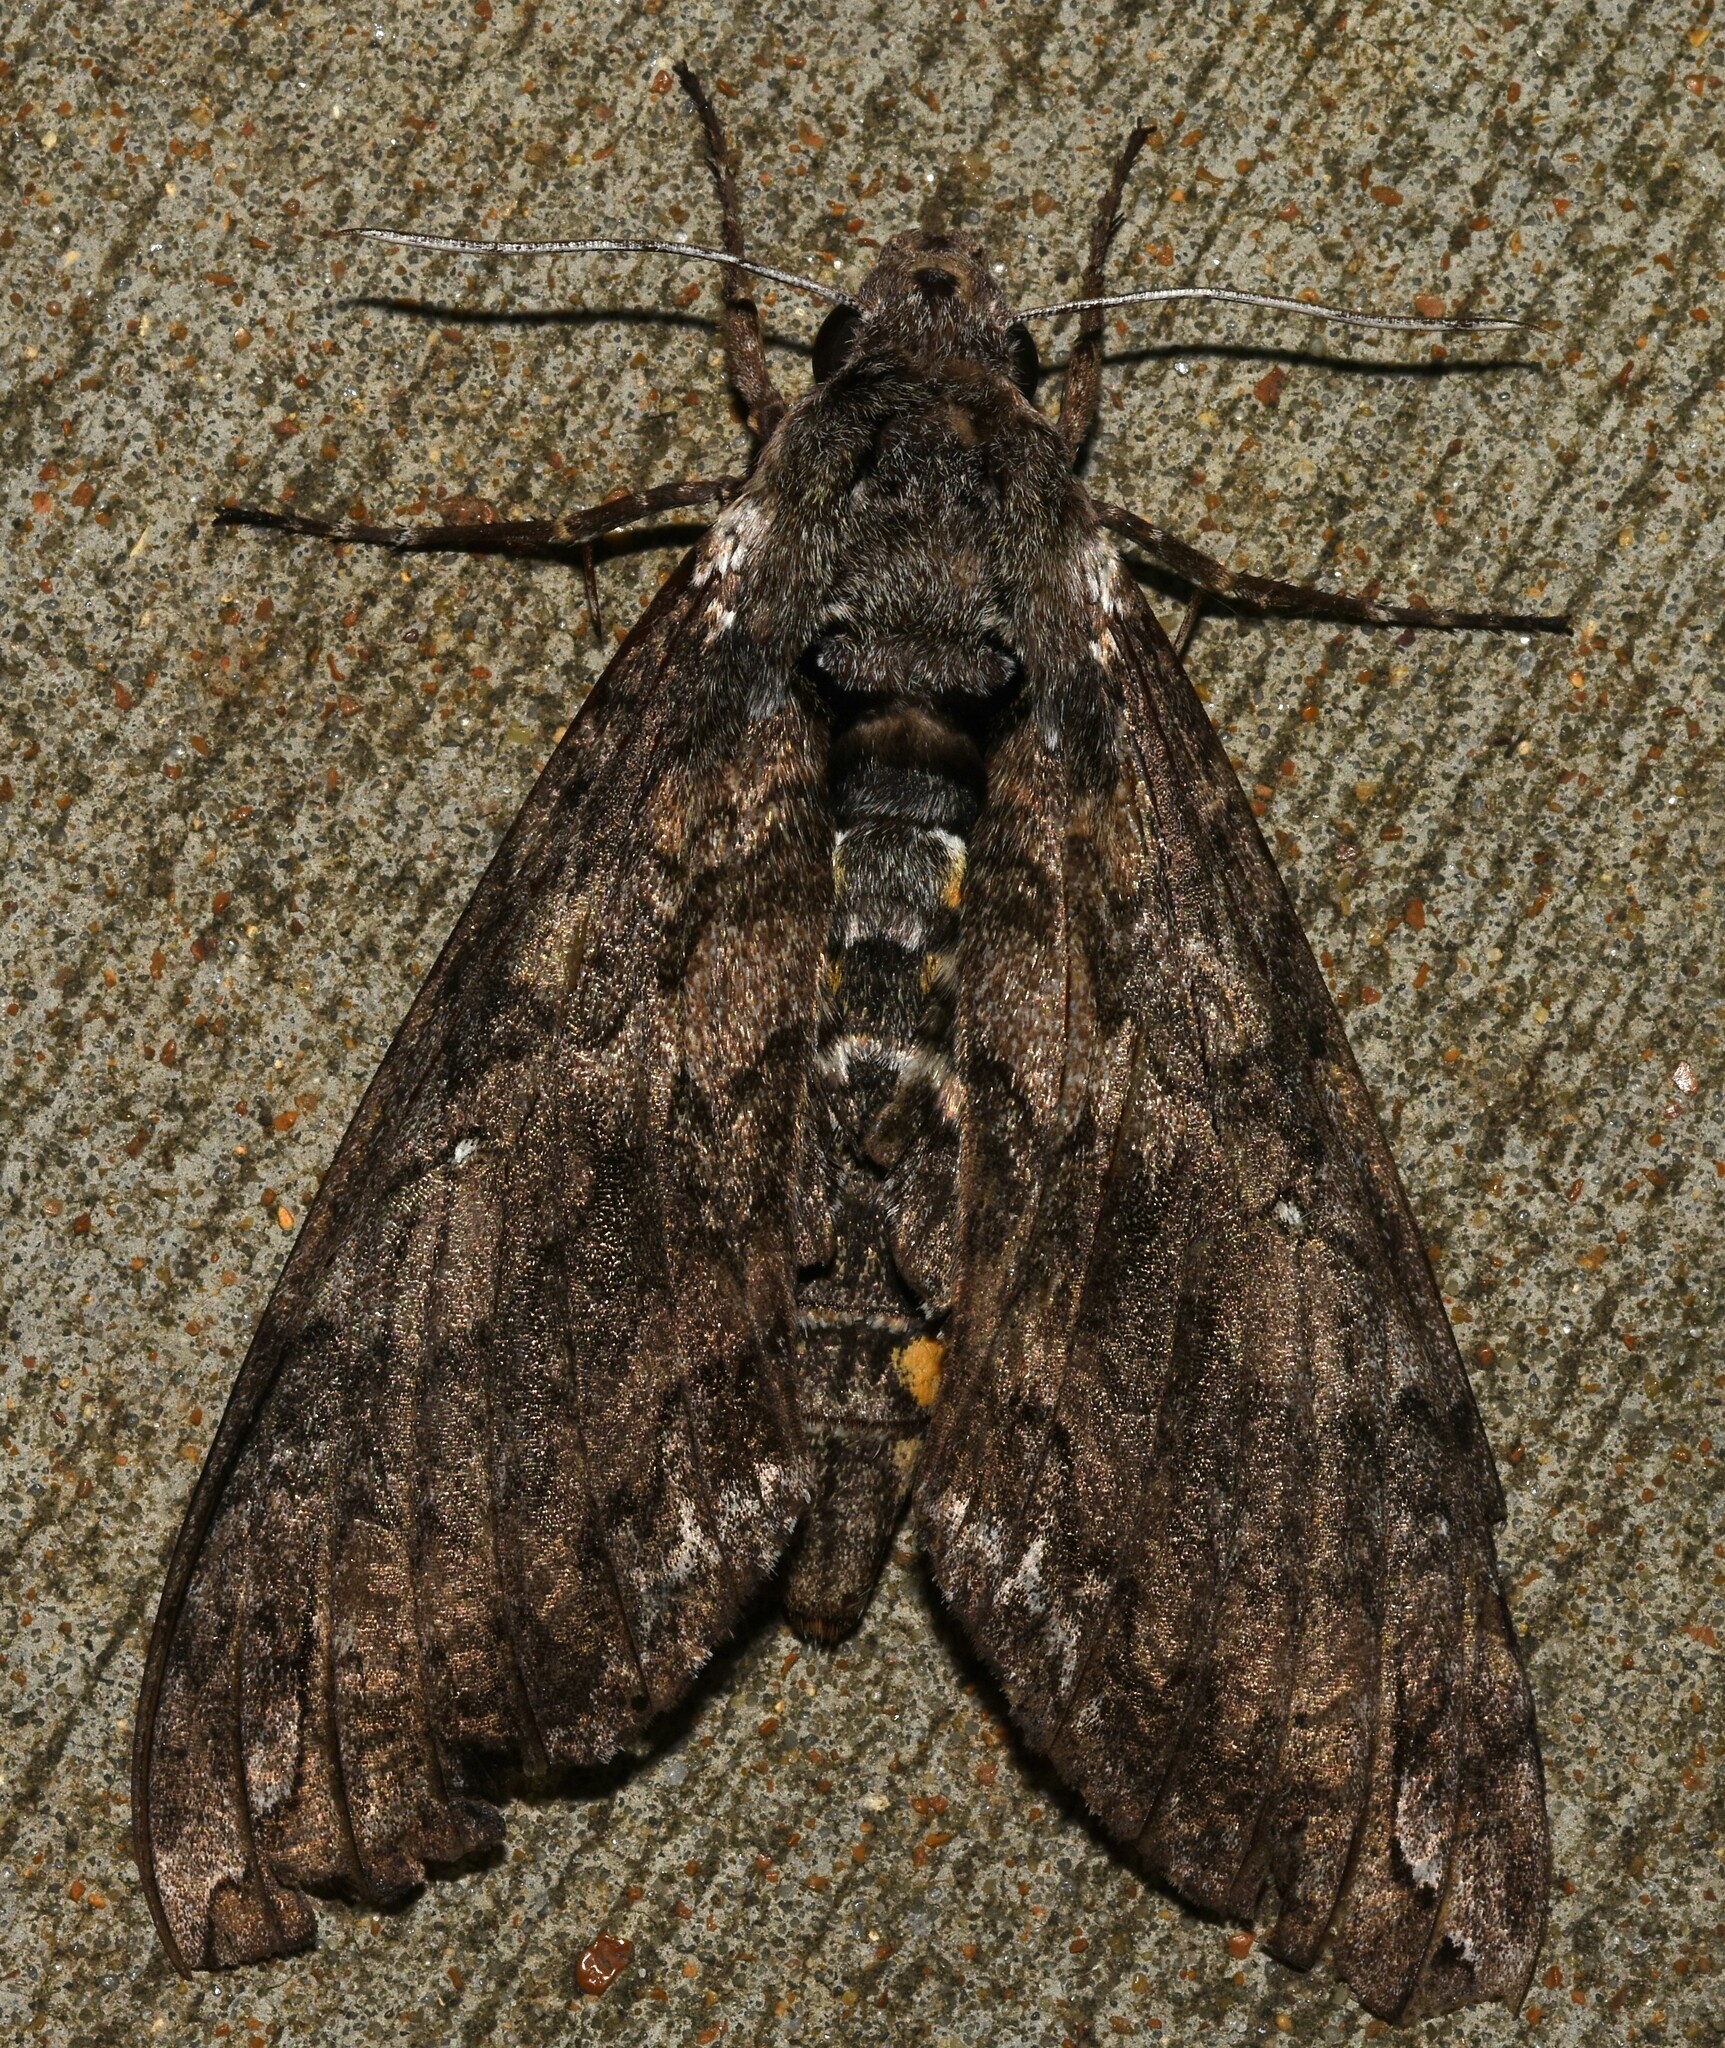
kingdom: Animalia
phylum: Arthropoda
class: Insecta
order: Lepidoptera
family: Sphingidae
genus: Manduca
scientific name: Manduca sexta
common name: Carolina sphinx
